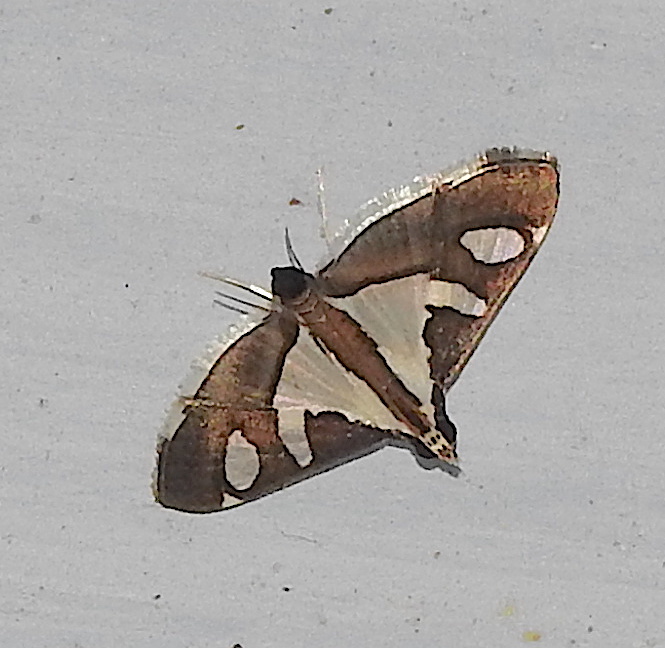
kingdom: Animalia
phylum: Arthropoda
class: Insecta
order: Lepidoptera
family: Crambidae
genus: Glyphodes
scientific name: Glyphodes bicolor
